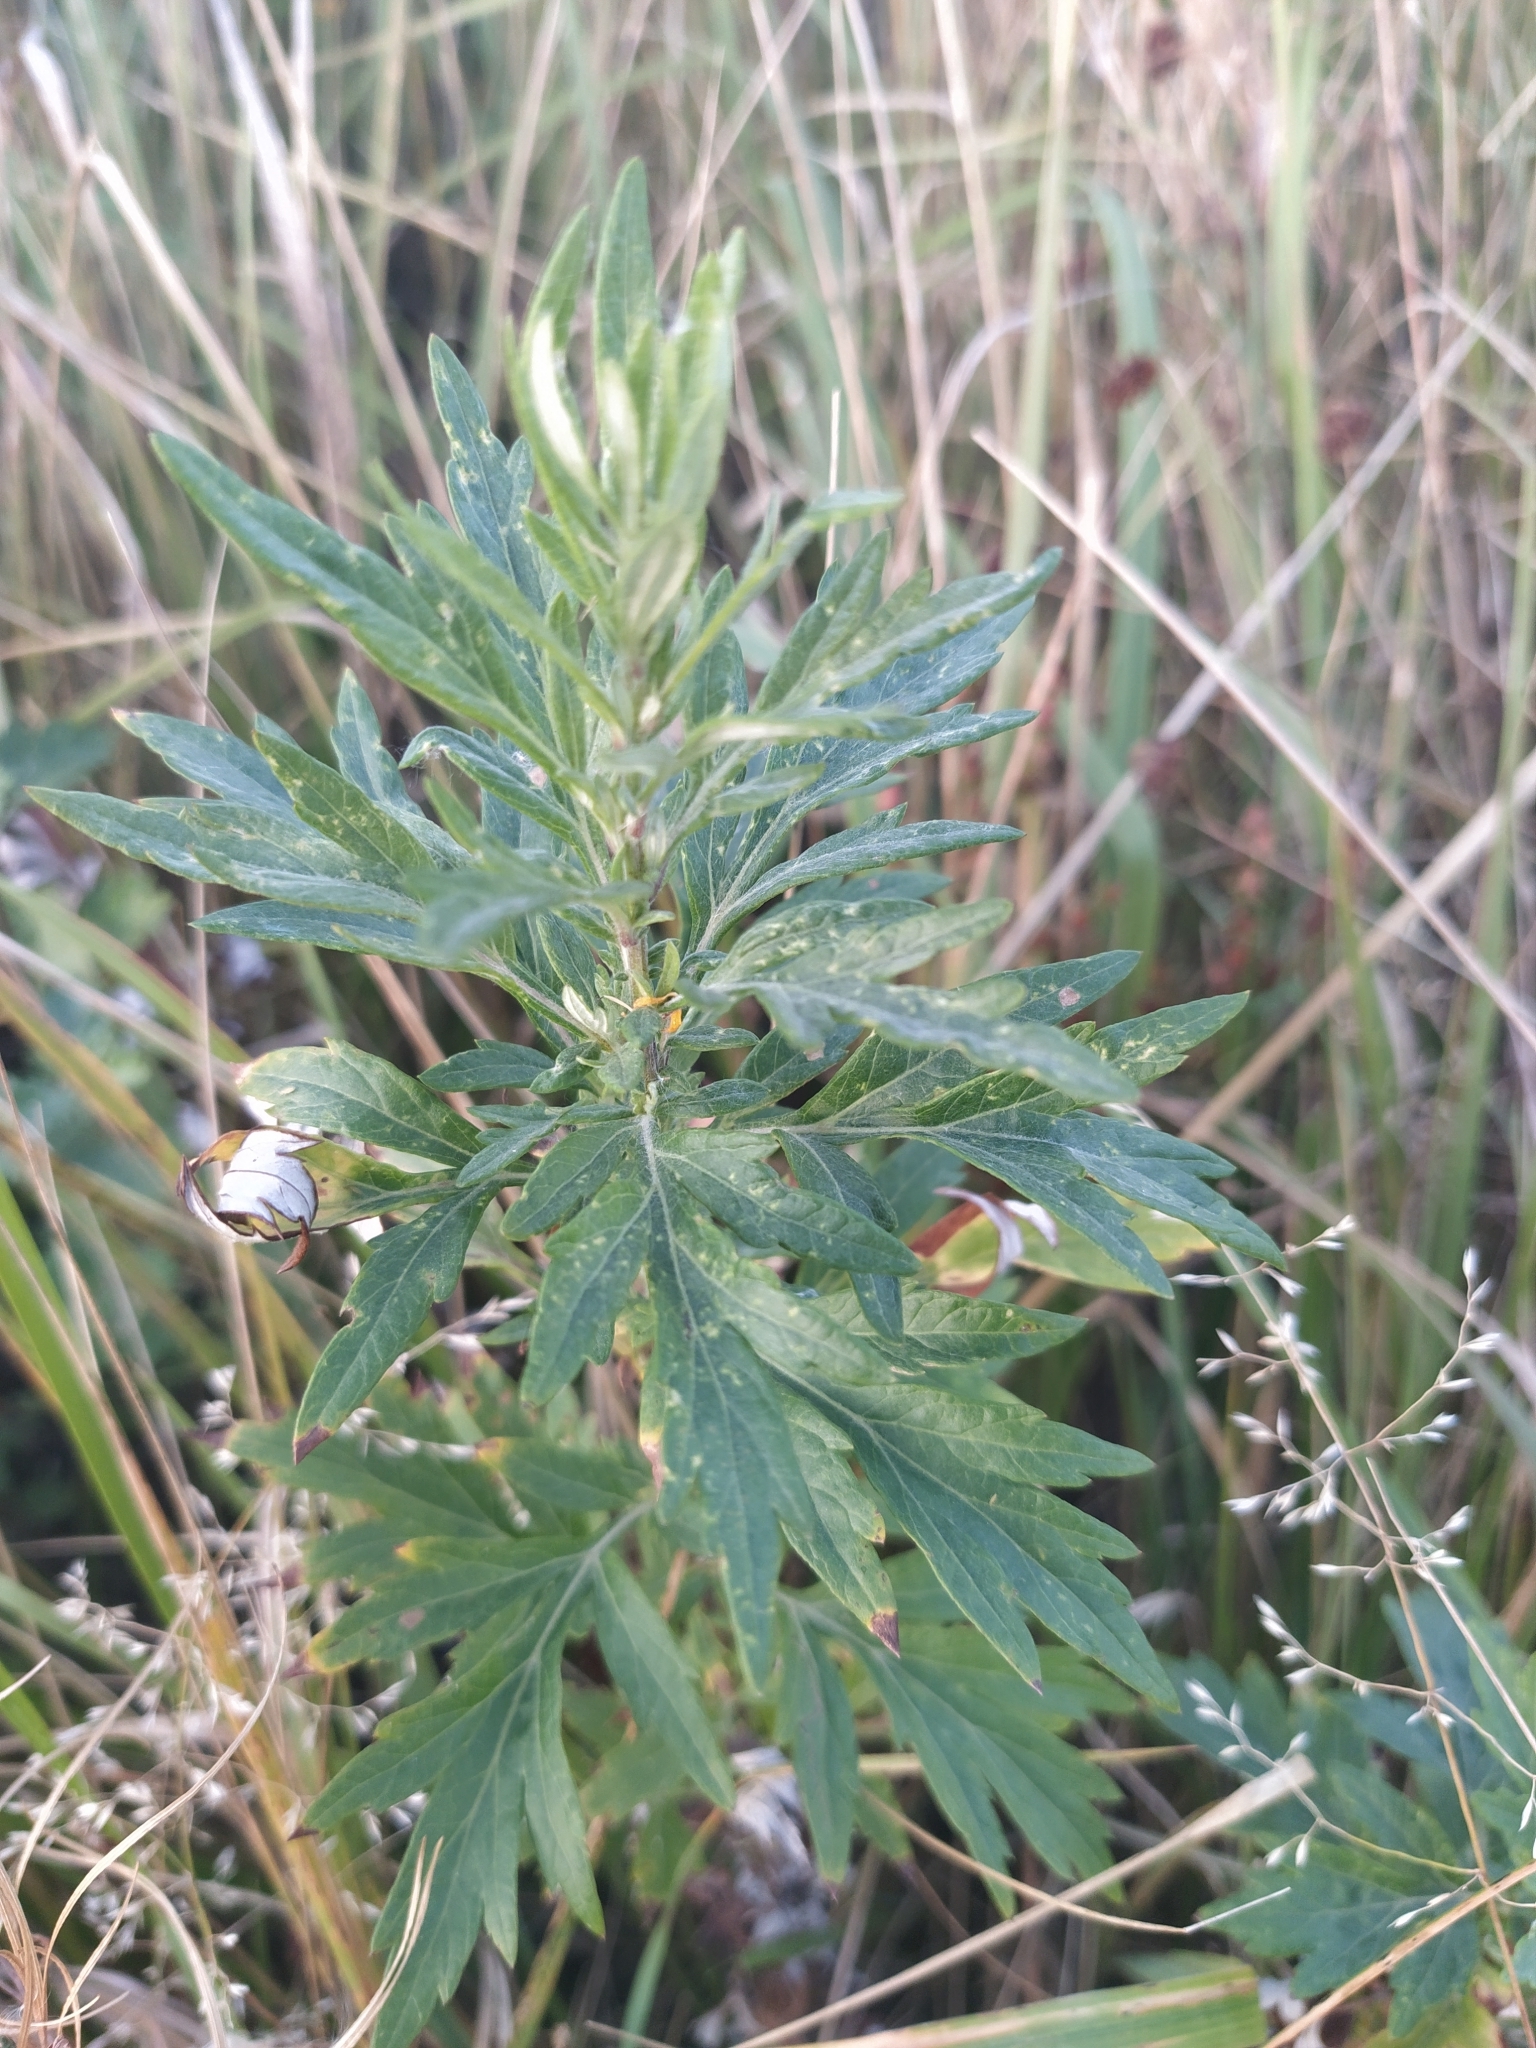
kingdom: Plantae
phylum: Tracheophyta
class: Magnoliopsida
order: Asterales
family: Asteraceae
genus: Artemisia
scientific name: Artemisia vulgaris
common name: Mugwort
